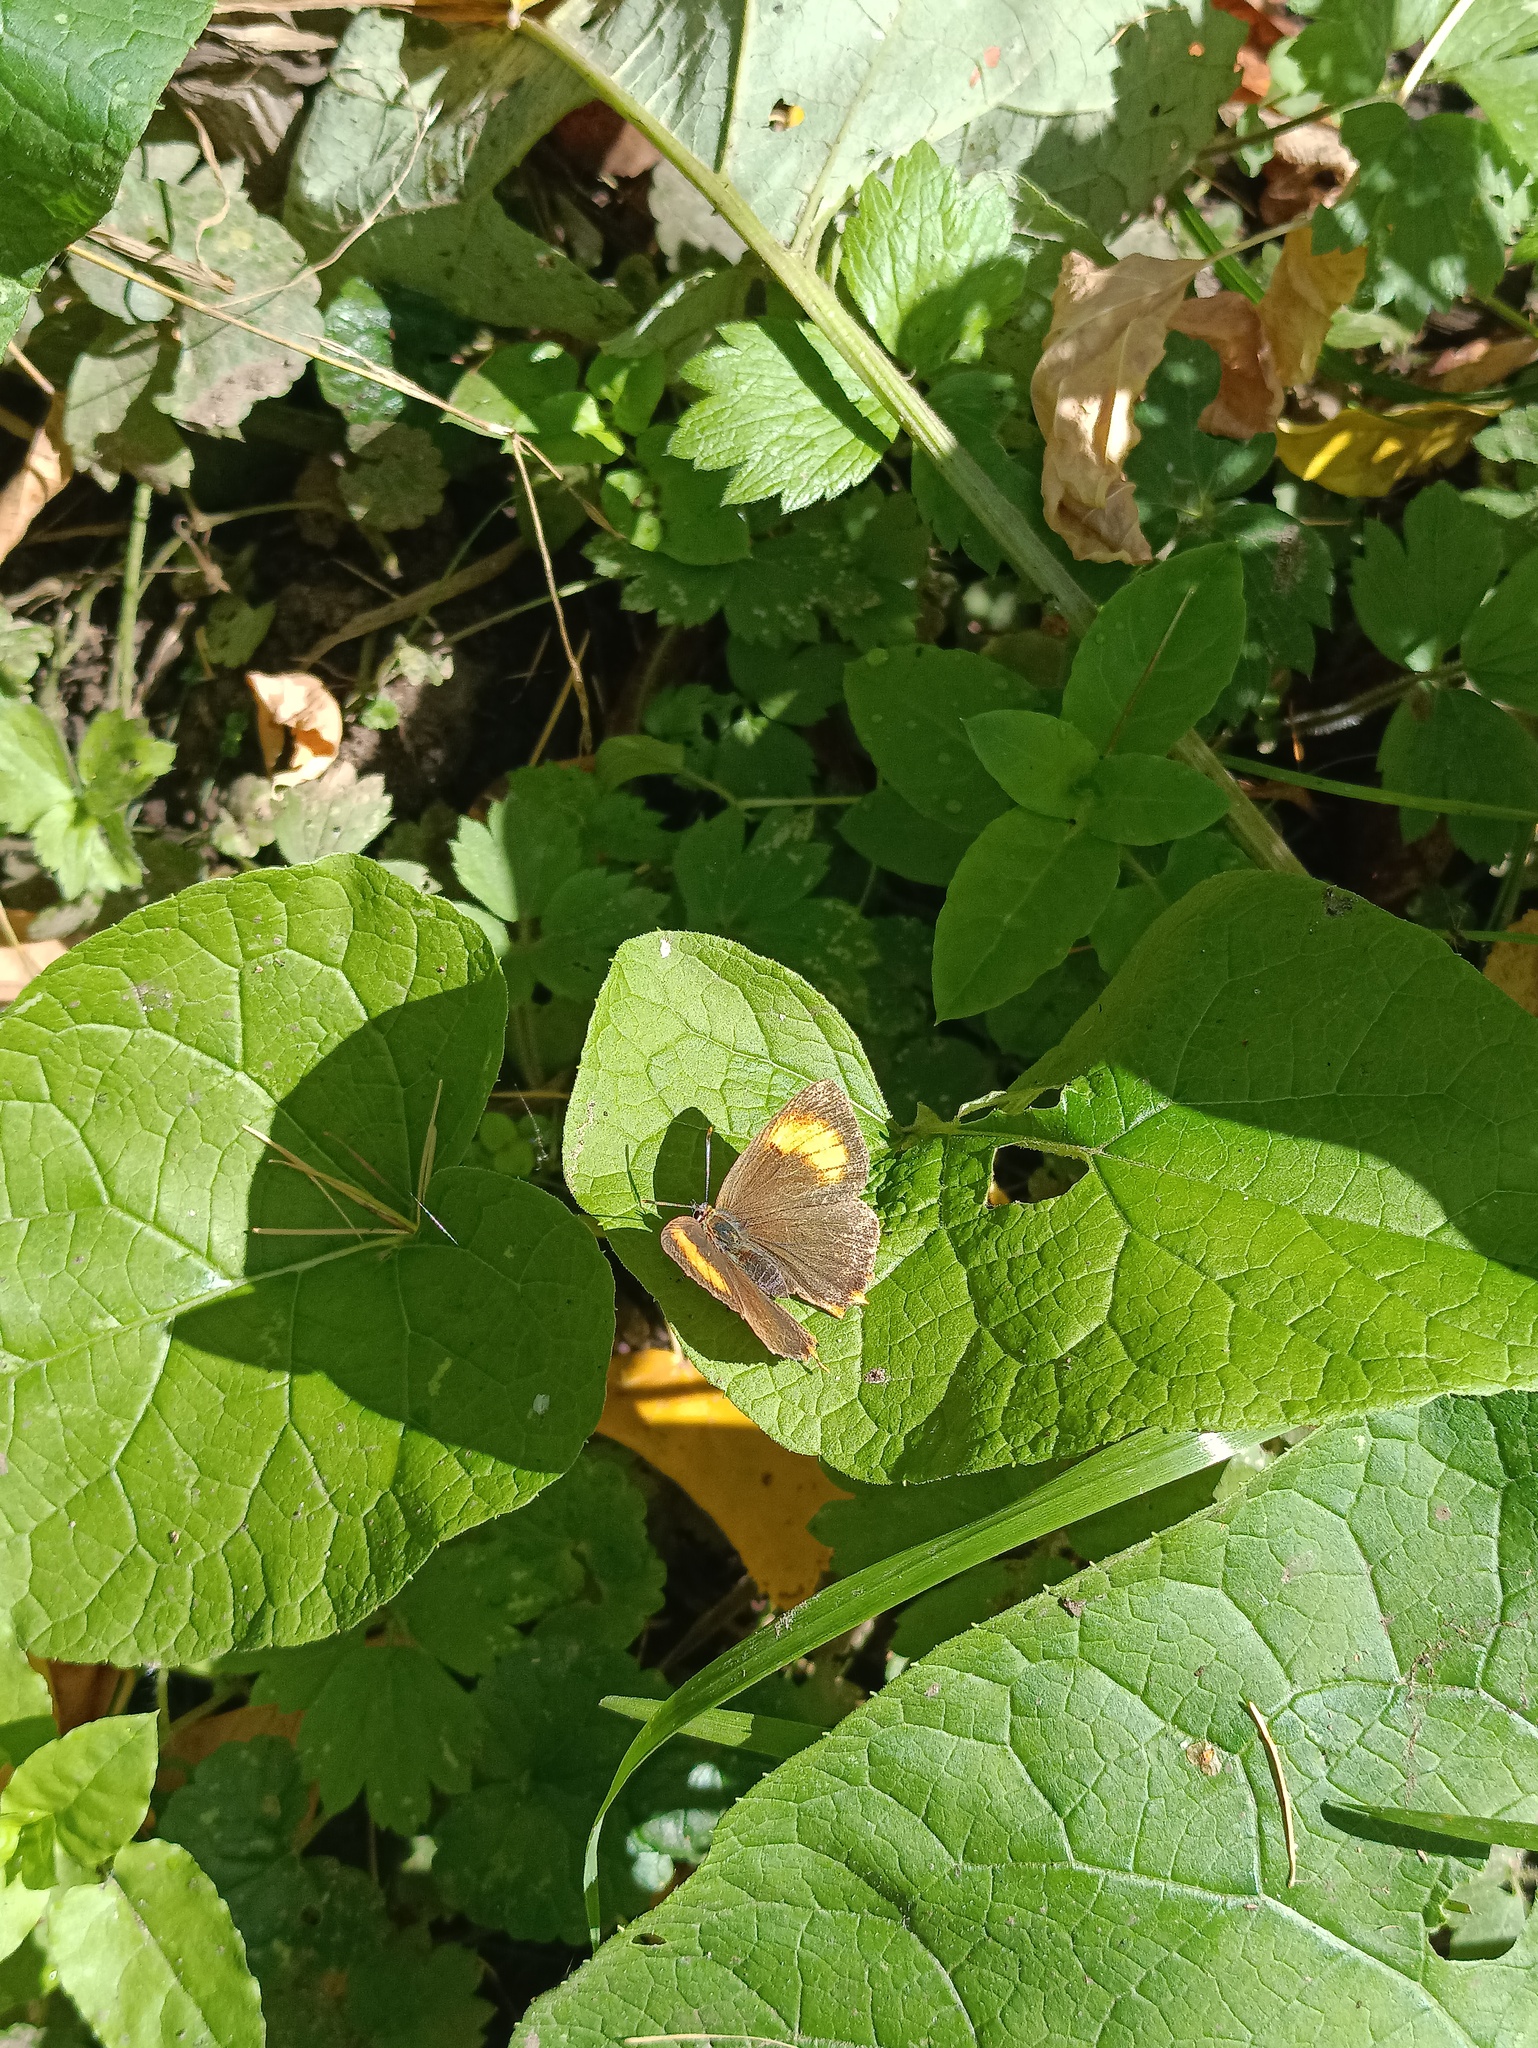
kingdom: Animalia
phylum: Arthropoda
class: Insecta
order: Lepidoptera
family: Lycaenidae
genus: Thecla
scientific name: Thecla betulae
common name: Brown hairstreak
